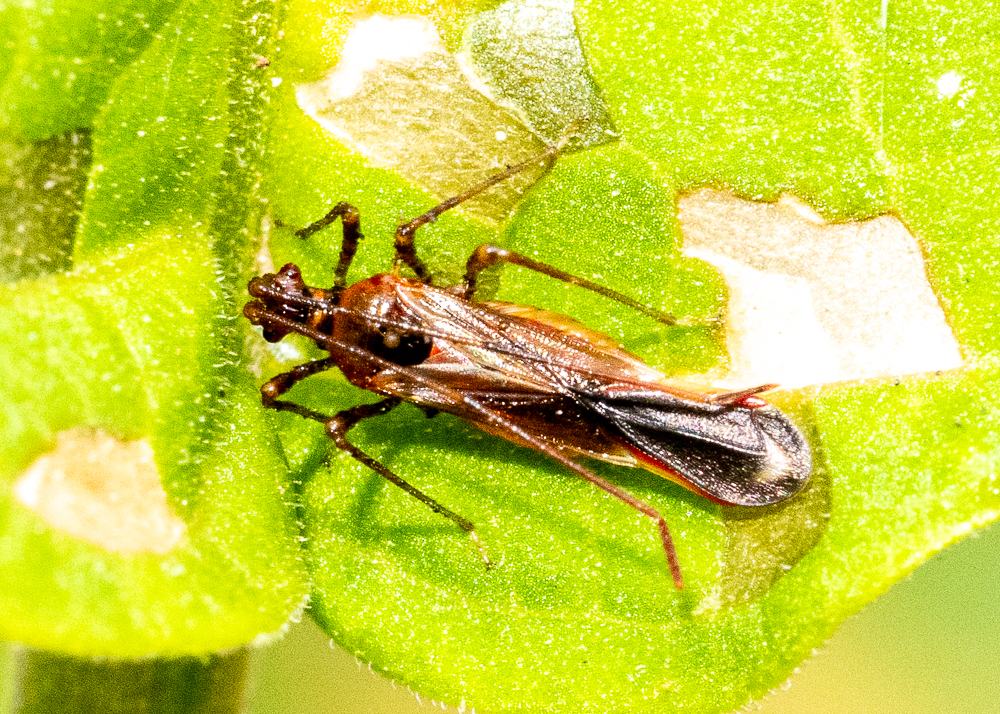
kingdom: Animalia
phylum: Arthropoda
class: Insecta
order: Hemiptera
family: Miridae
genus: Helopeltis
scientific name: Helopeltis cinchonae
